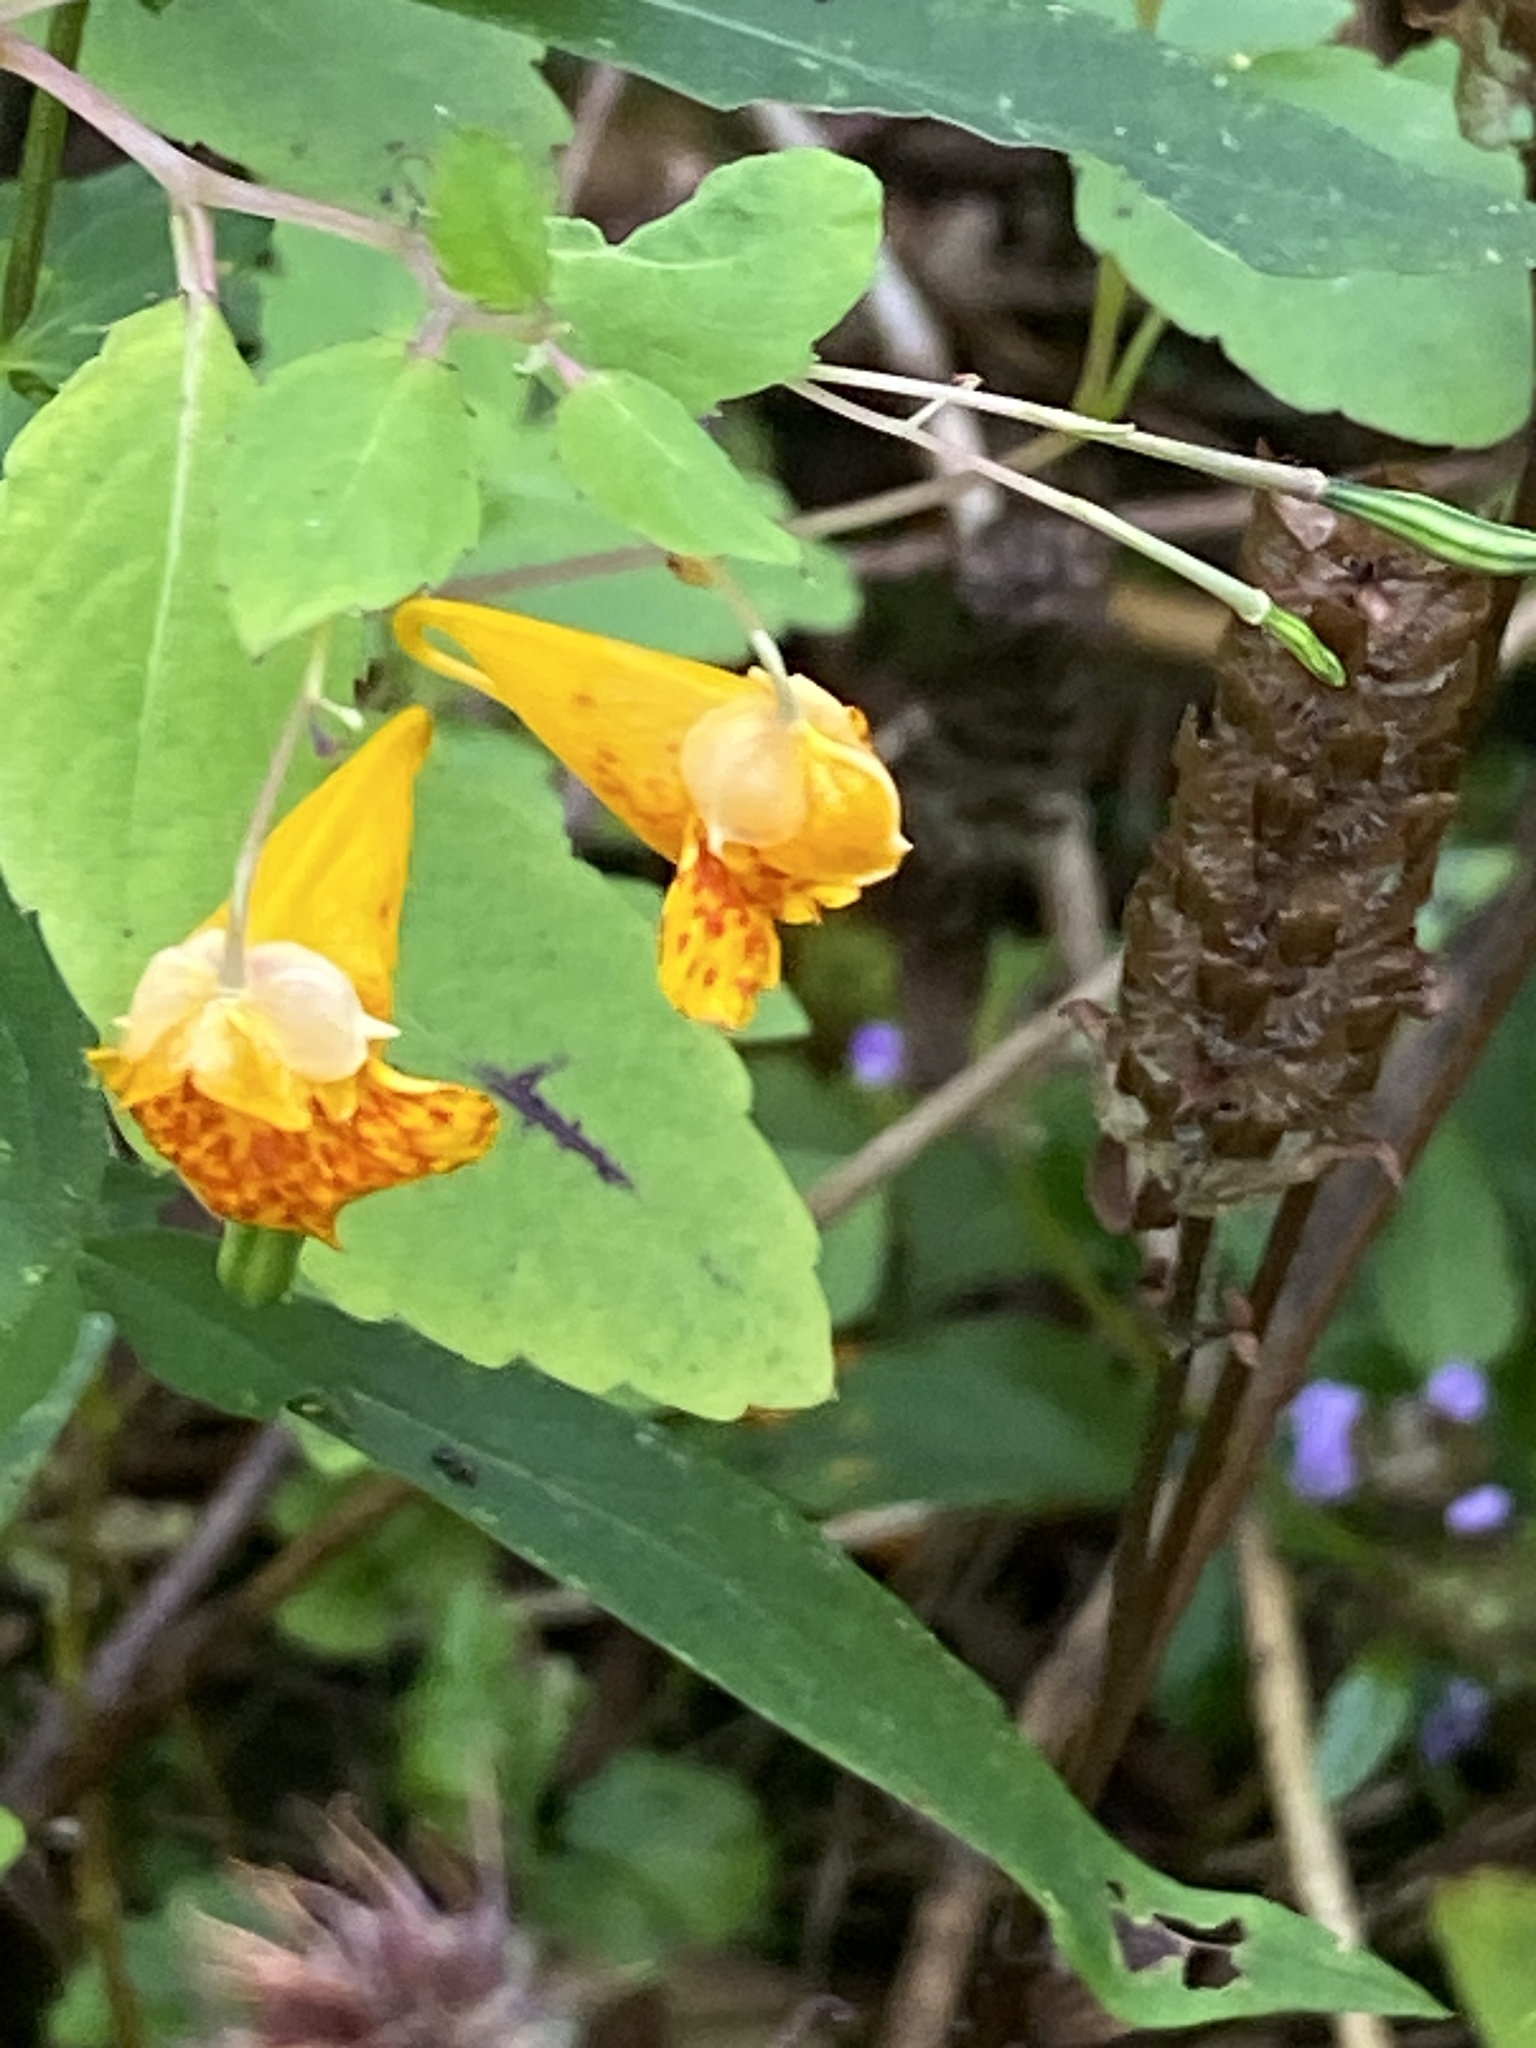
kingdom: Plantae
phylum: Tracheophyta
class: Magnoliopsida
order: Ericales
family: Balsaminaceae
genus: Impatiens
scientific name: Impatiens capensis
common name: Orange balsam
